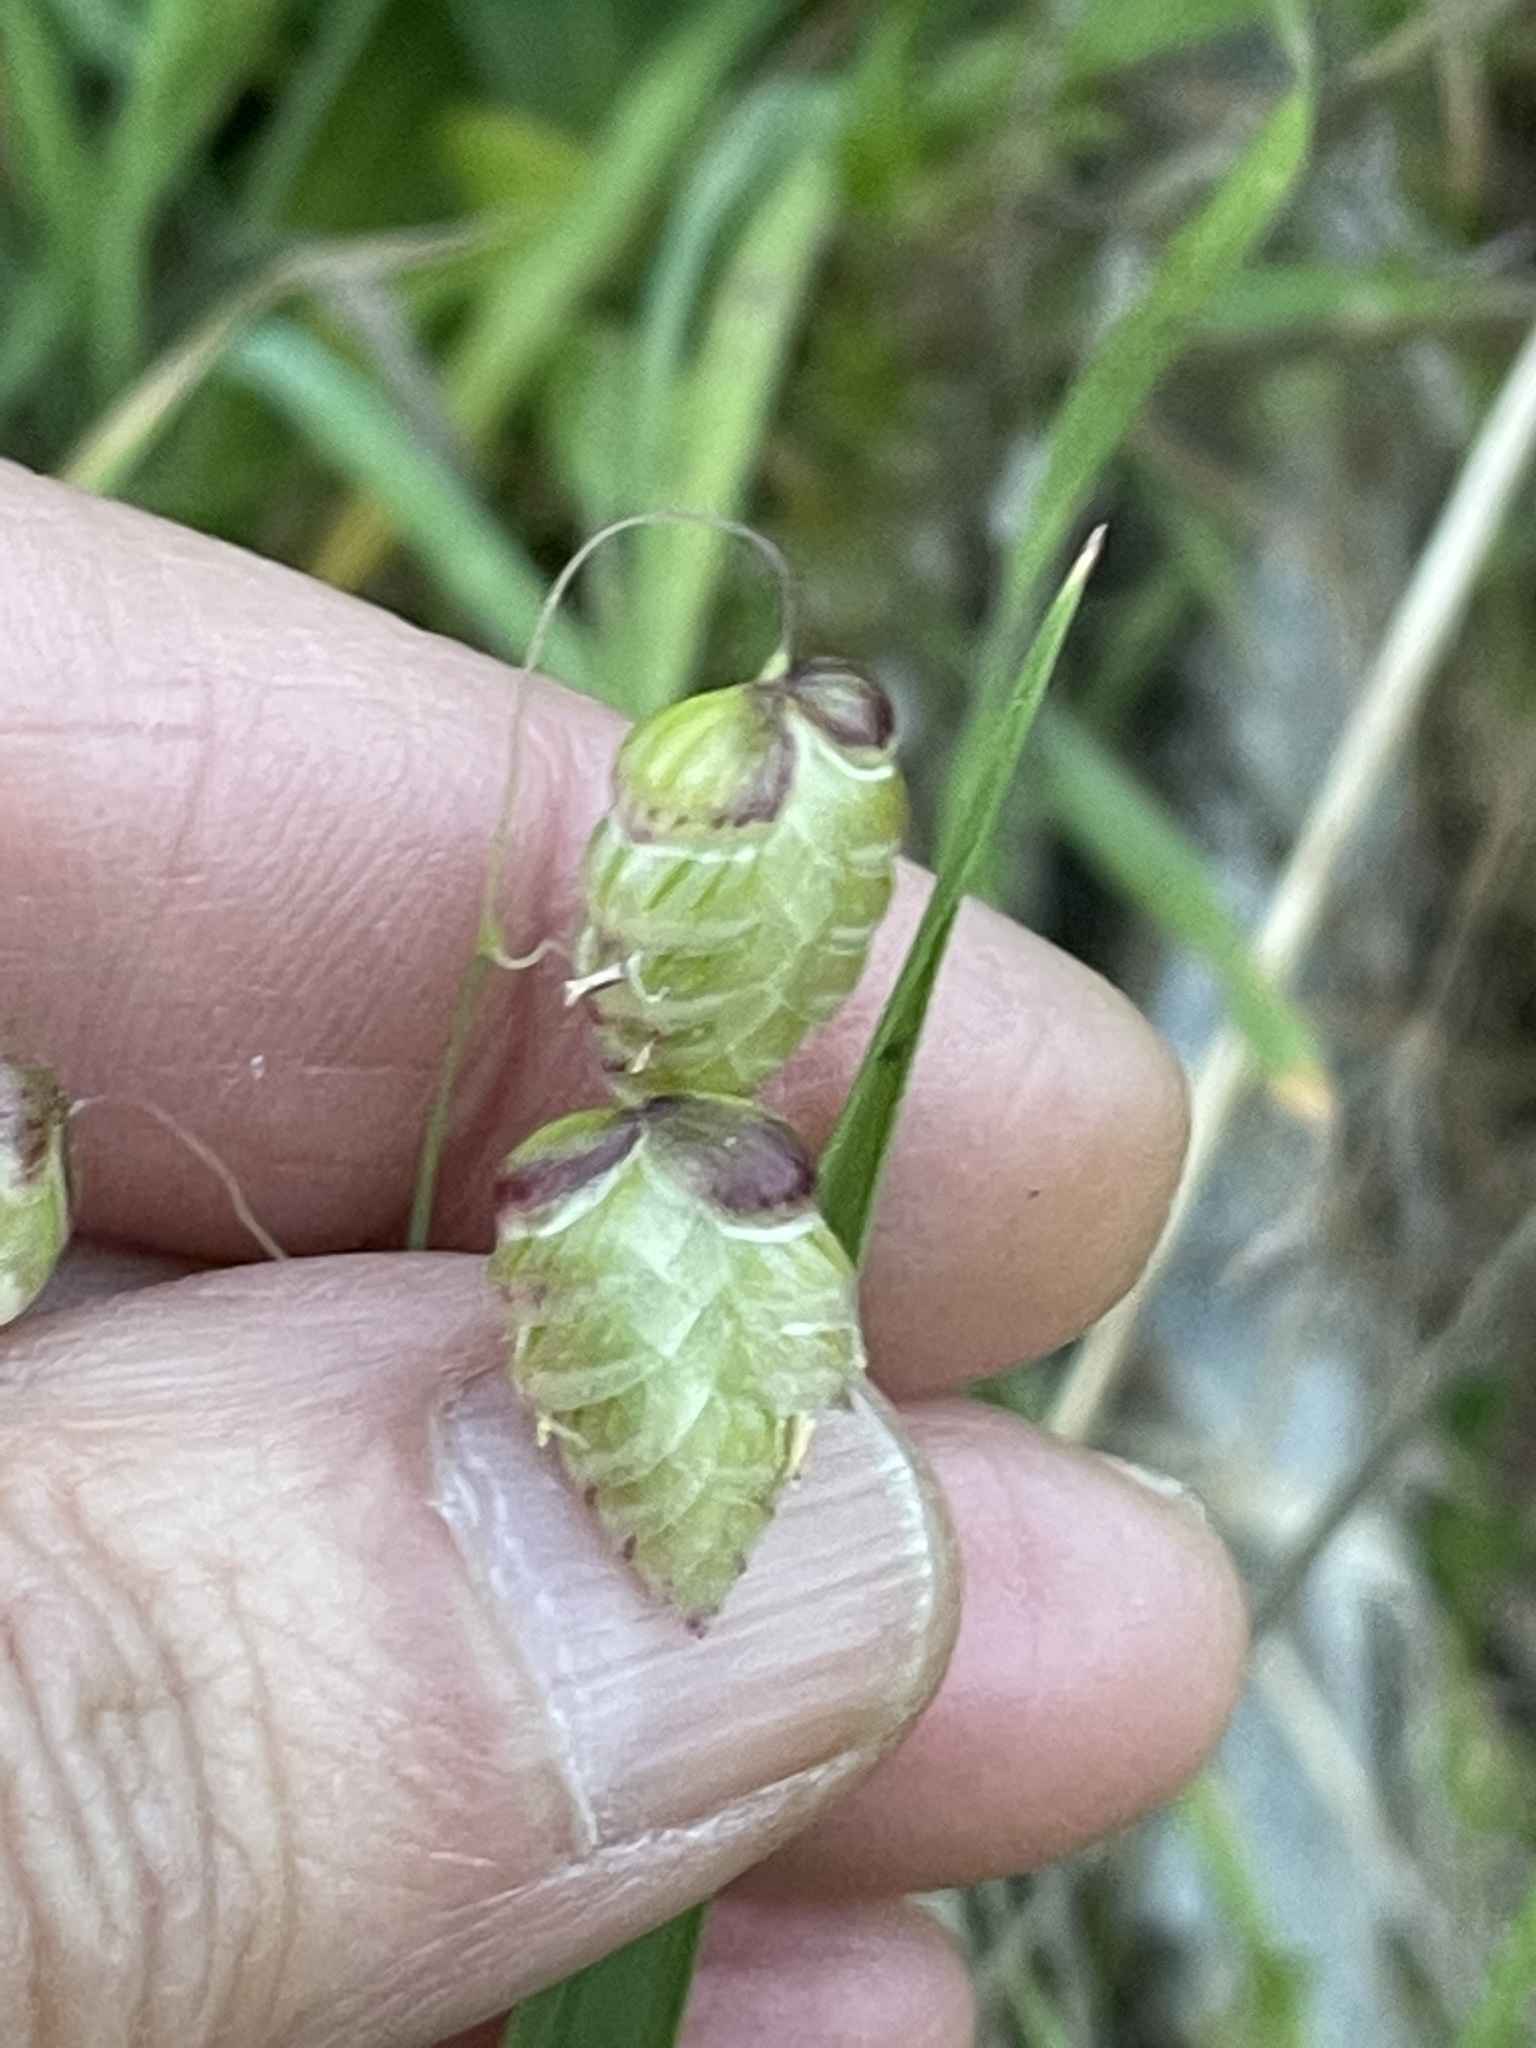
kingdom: Plantae
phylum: Tracheophyta
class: Liliopsida
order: Poales
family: Poaceae
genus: Briza
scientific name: Briza maxima
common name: Big quakinggrass
